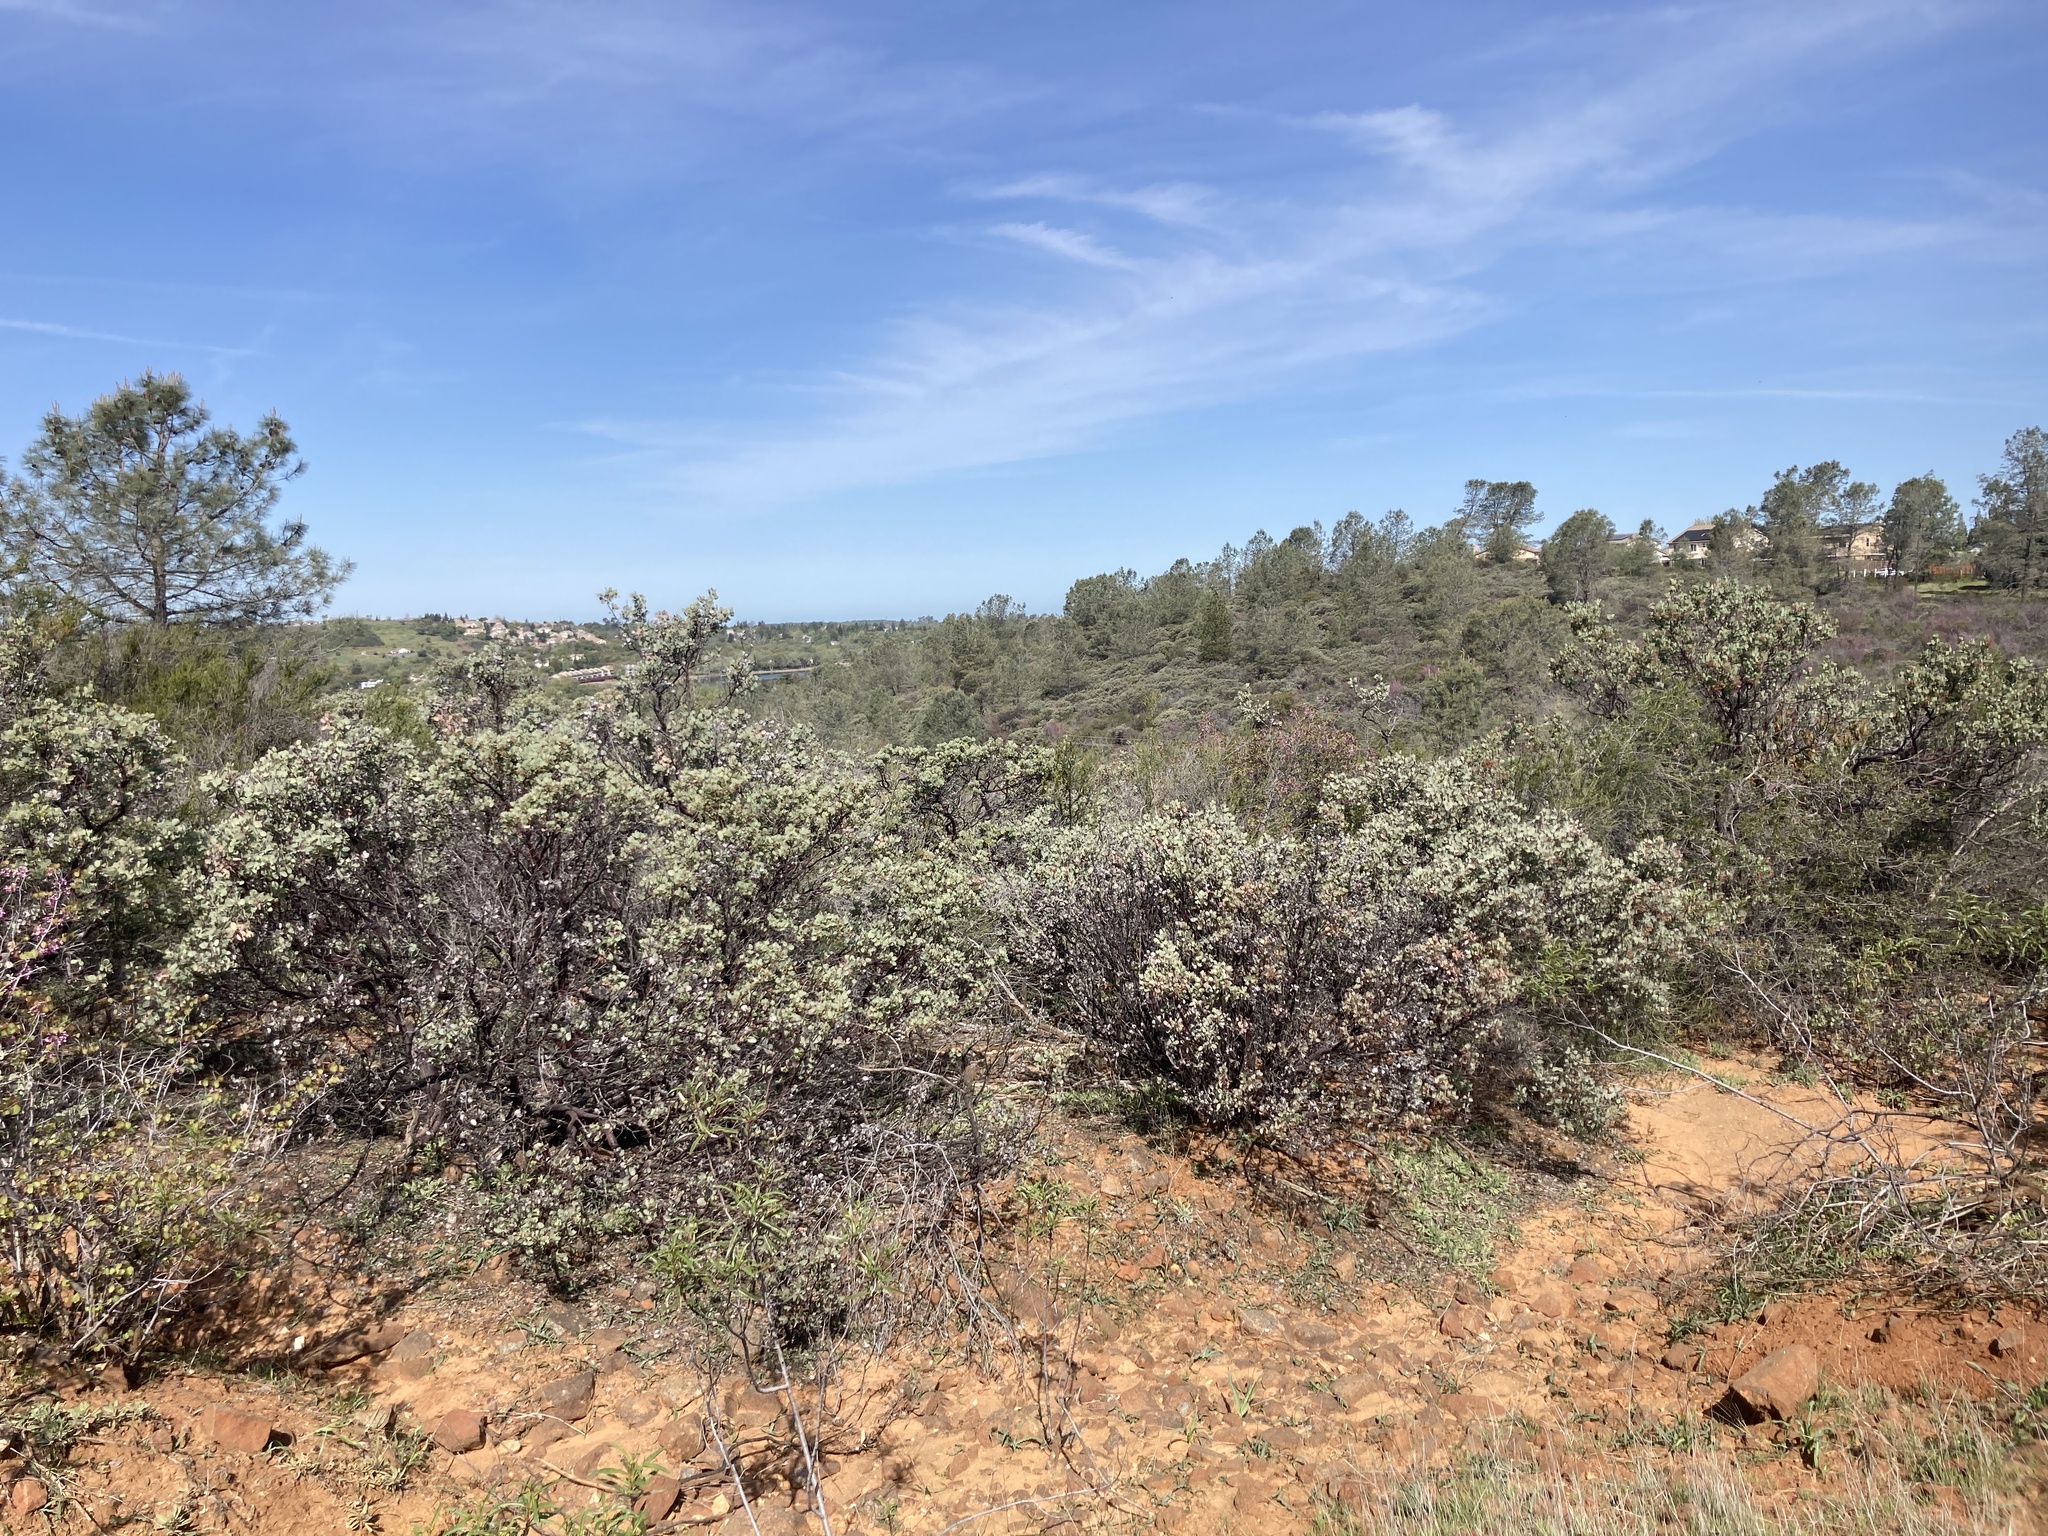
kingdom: Plantae
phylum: Tracheophyta
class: Magnoliopsida
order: Ericales
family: Ericaceae
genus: Arctostaphylos
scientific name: Arctostaphylos viscida
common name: White-leaf manzanita
